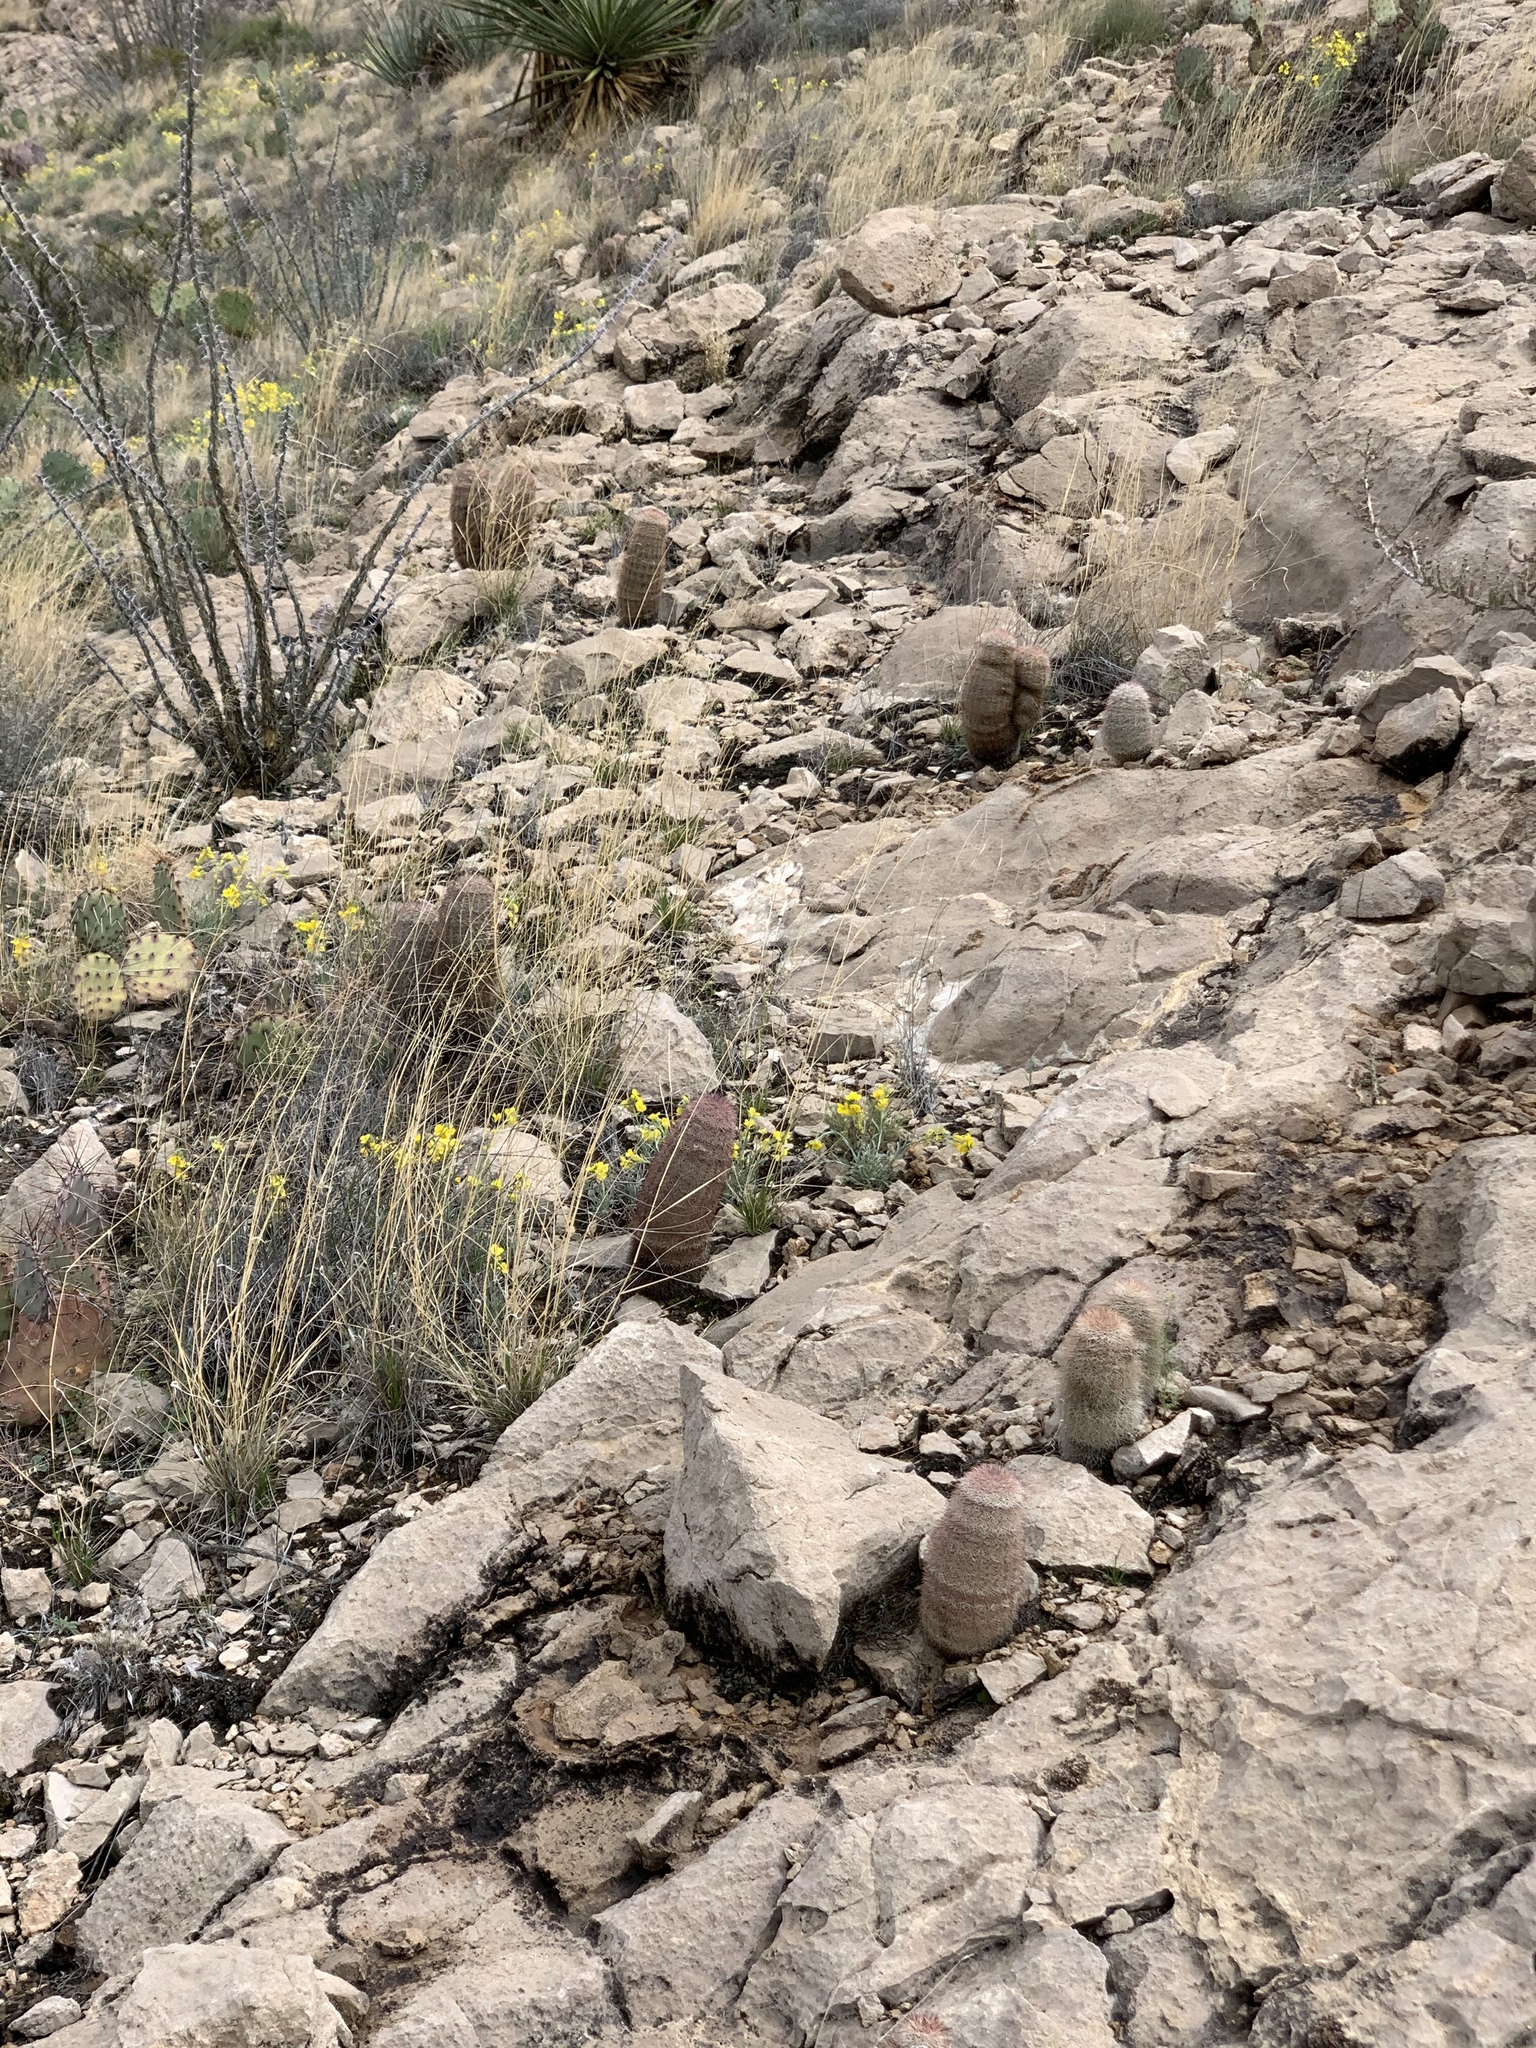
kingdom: Plantae
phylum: Tracheophyta
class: Magnoliopsida
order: Caryophyllales
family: Cactaceae
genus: Echinocereus
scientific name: Echinocereus dasyacanthus
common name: Spiny hedgehog cactus
